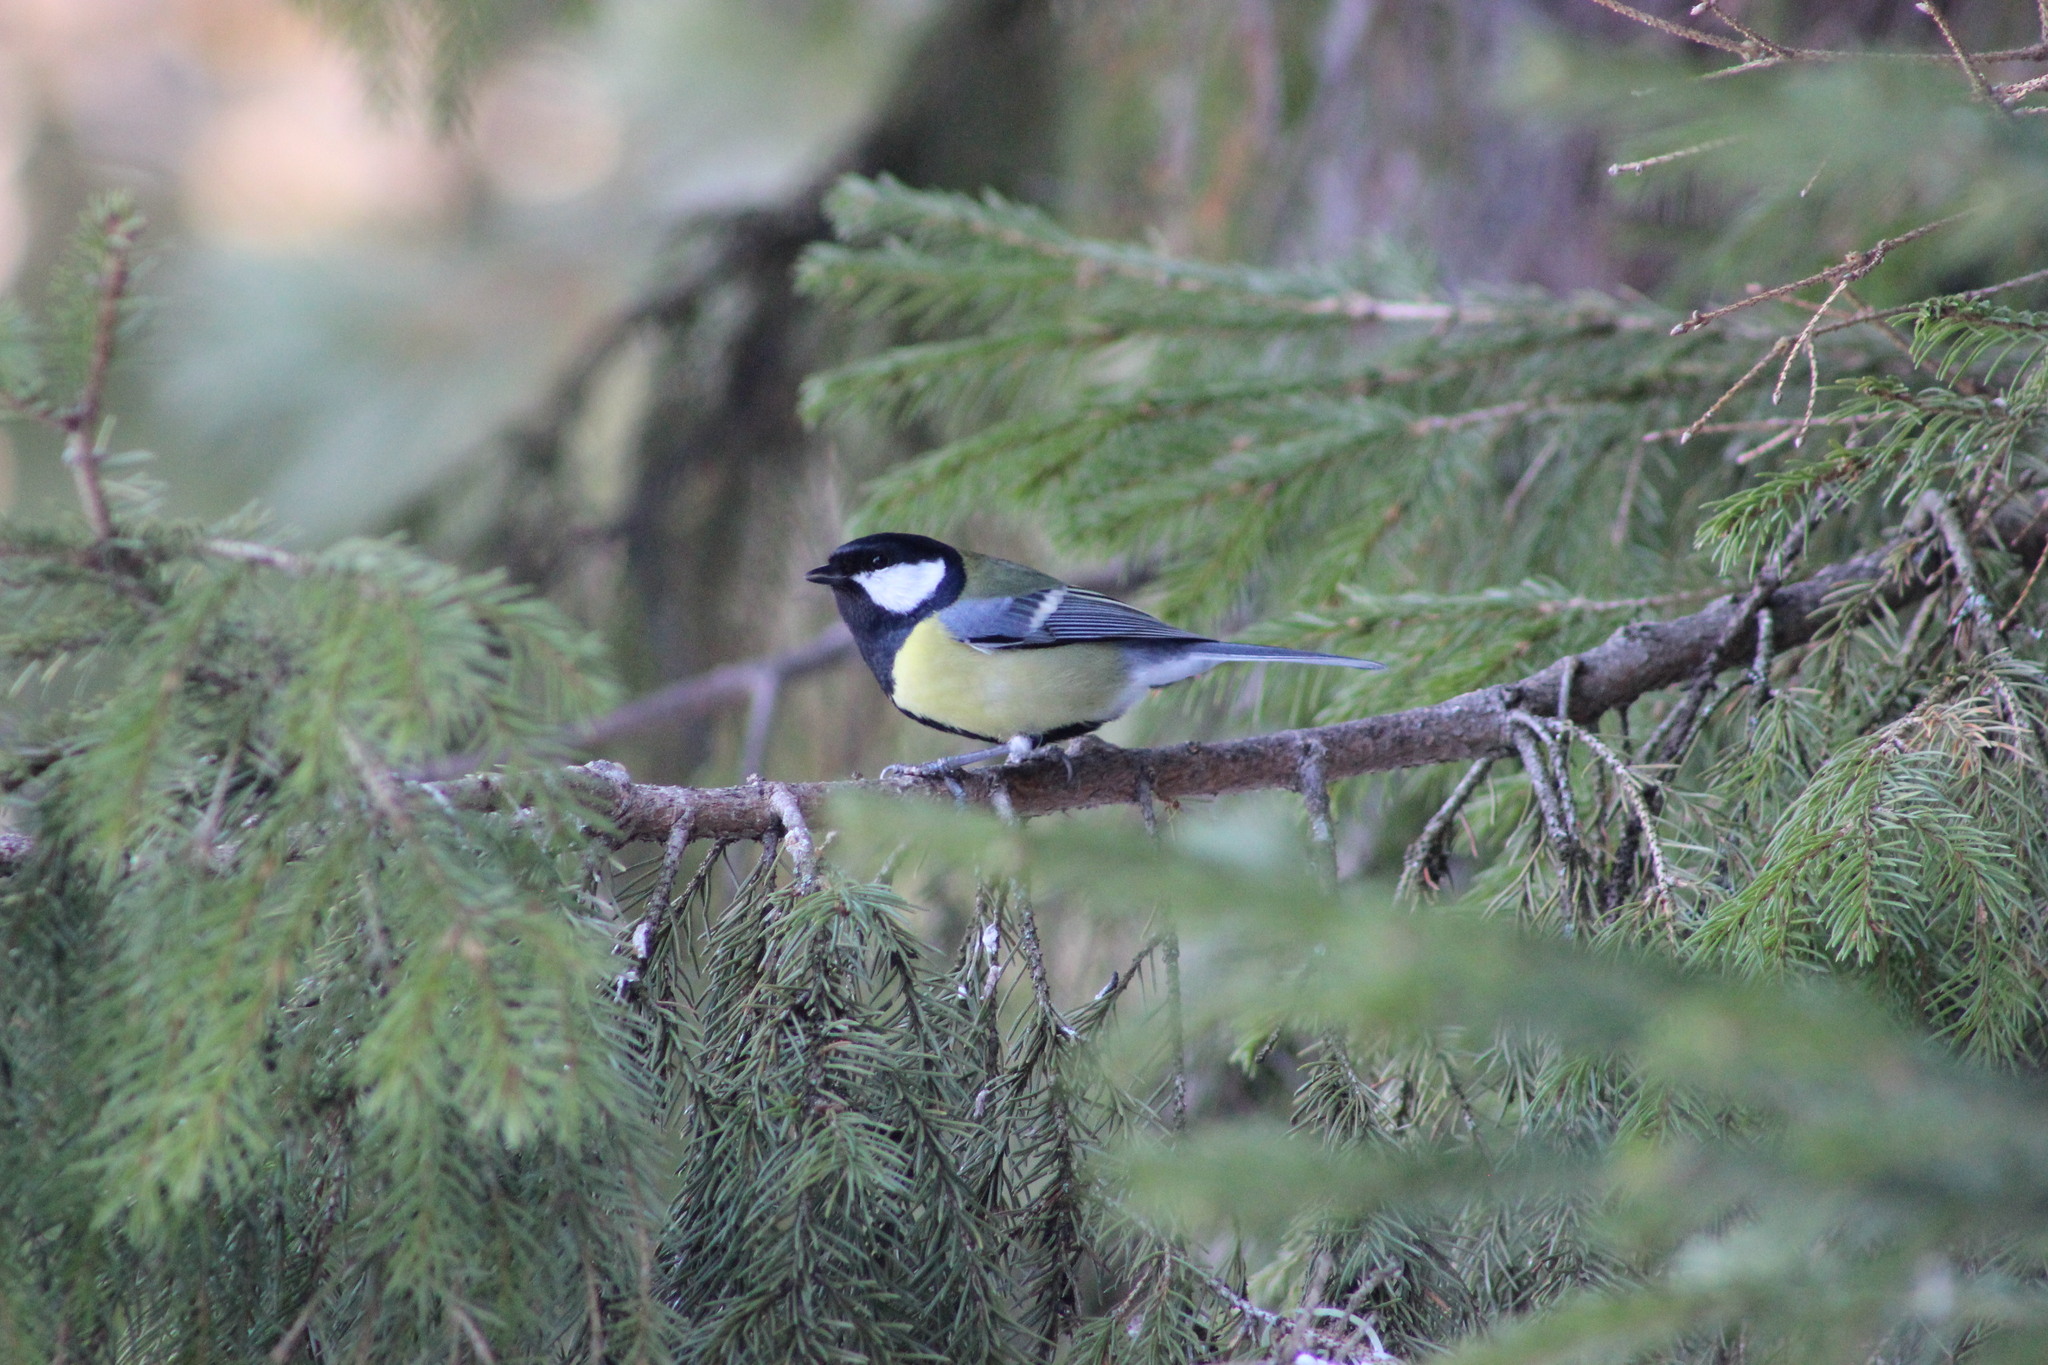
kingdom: Animalia
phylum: Chordata
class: Aves
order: Passeriformes
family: Paridae
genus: Parus
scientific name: Parus major
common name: Great tit
